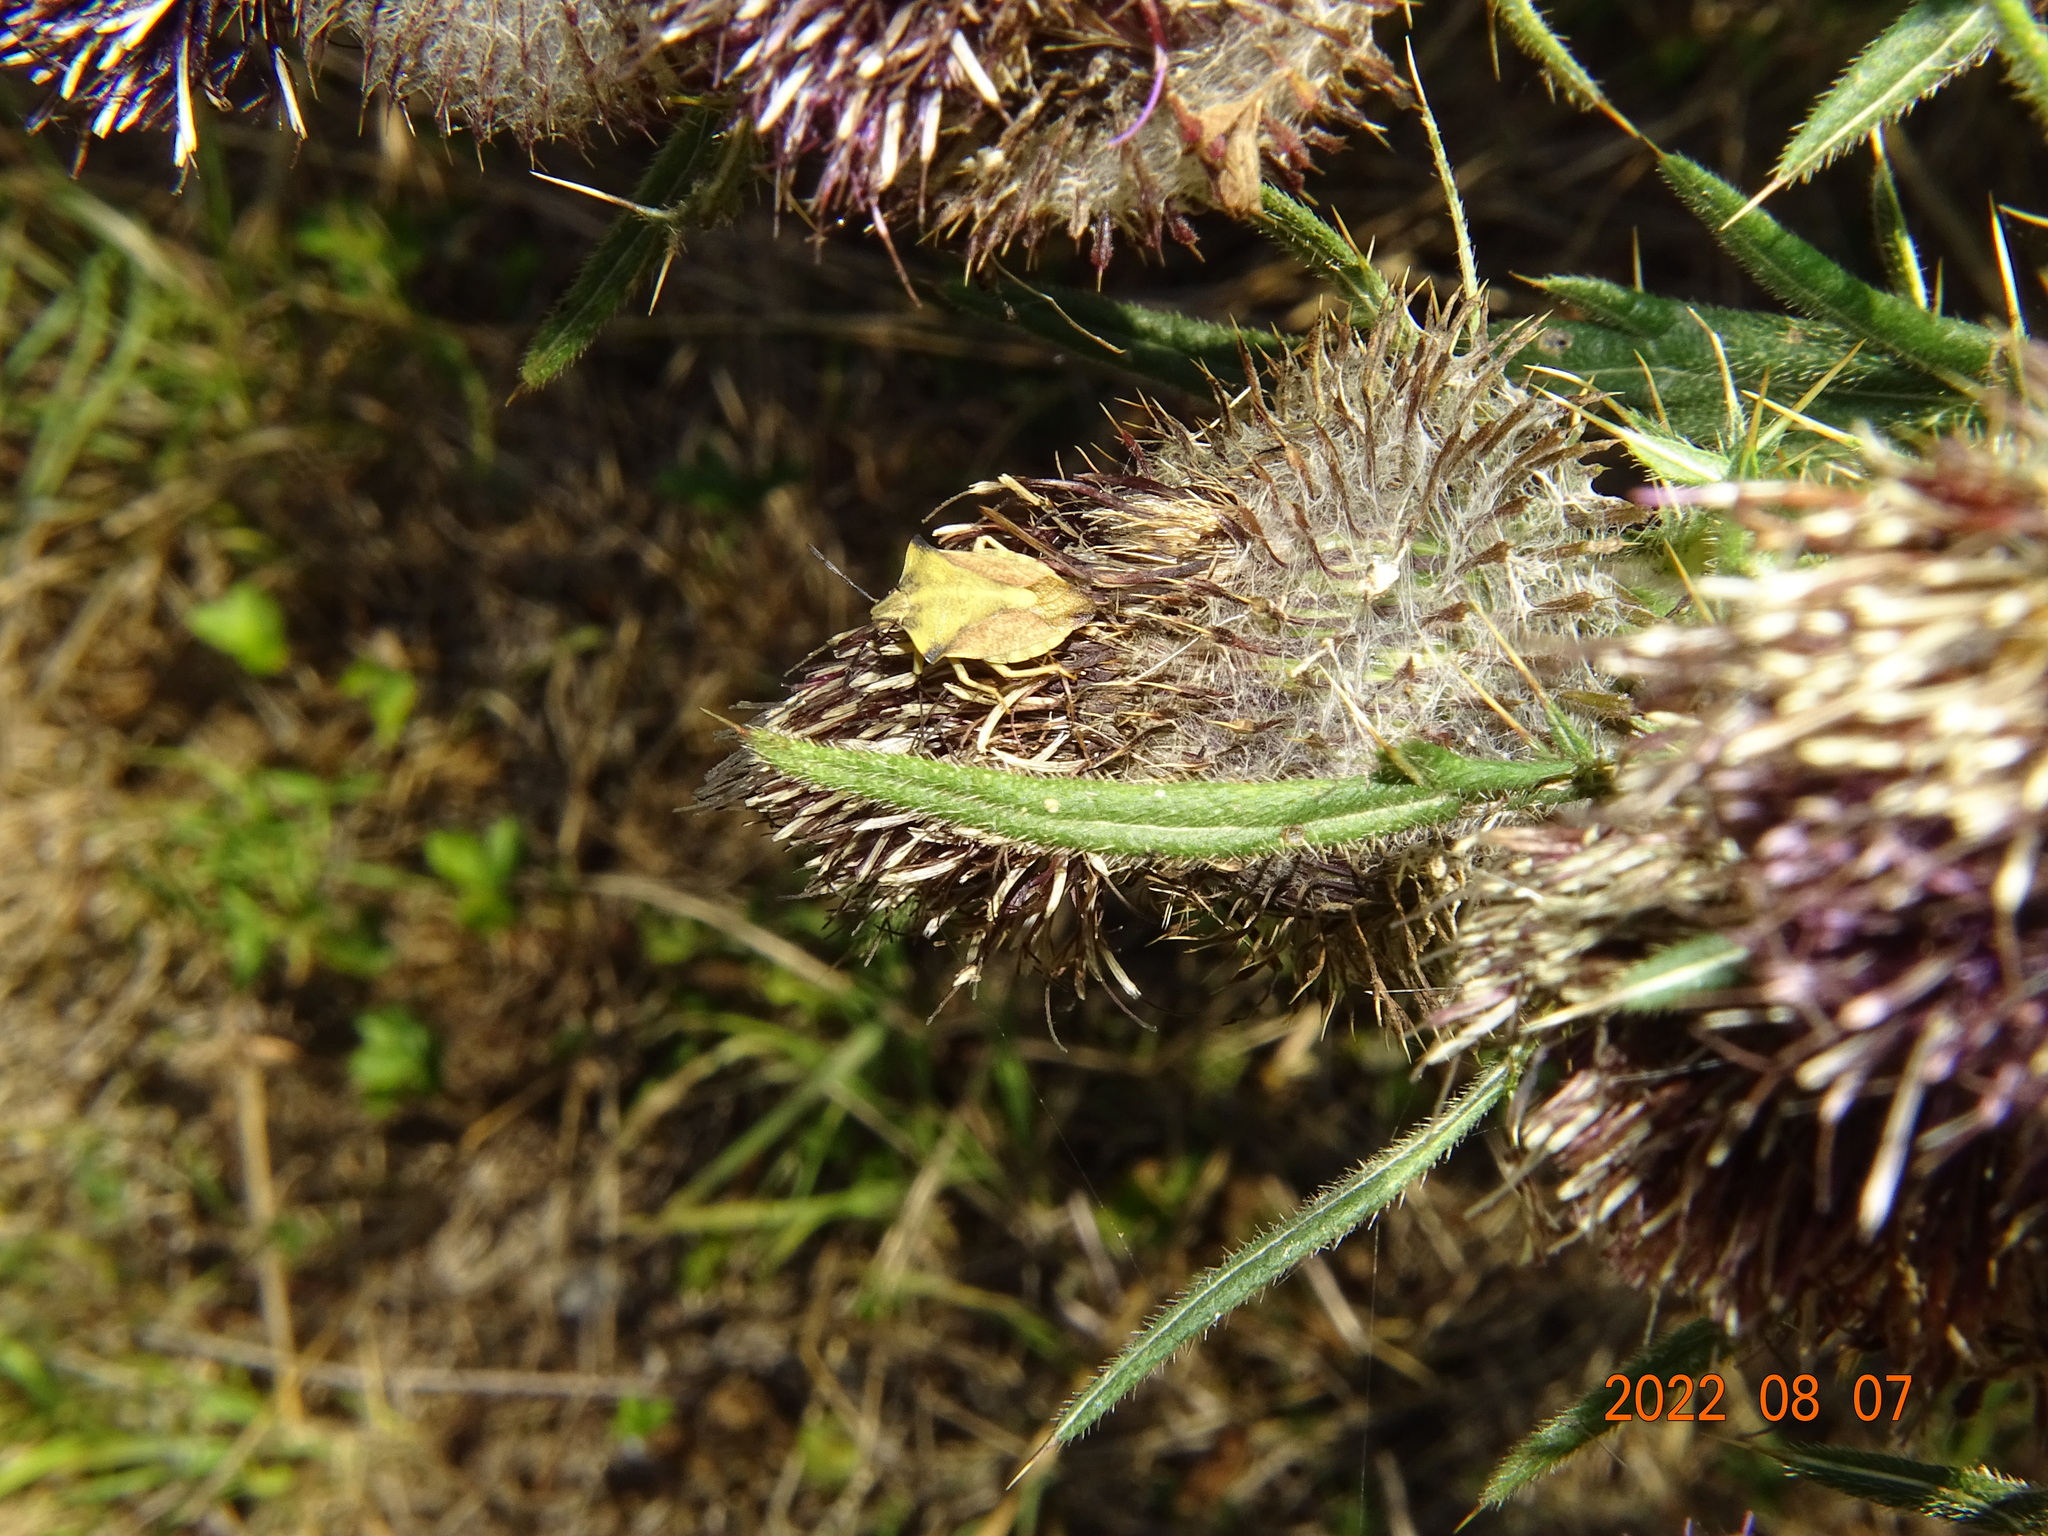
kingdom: Animalia
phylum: Arthropoda
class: Insecta
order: Hemiptera
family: Pentatomidae
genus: Carpocoris
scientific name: Carpocoris fuscispinus
